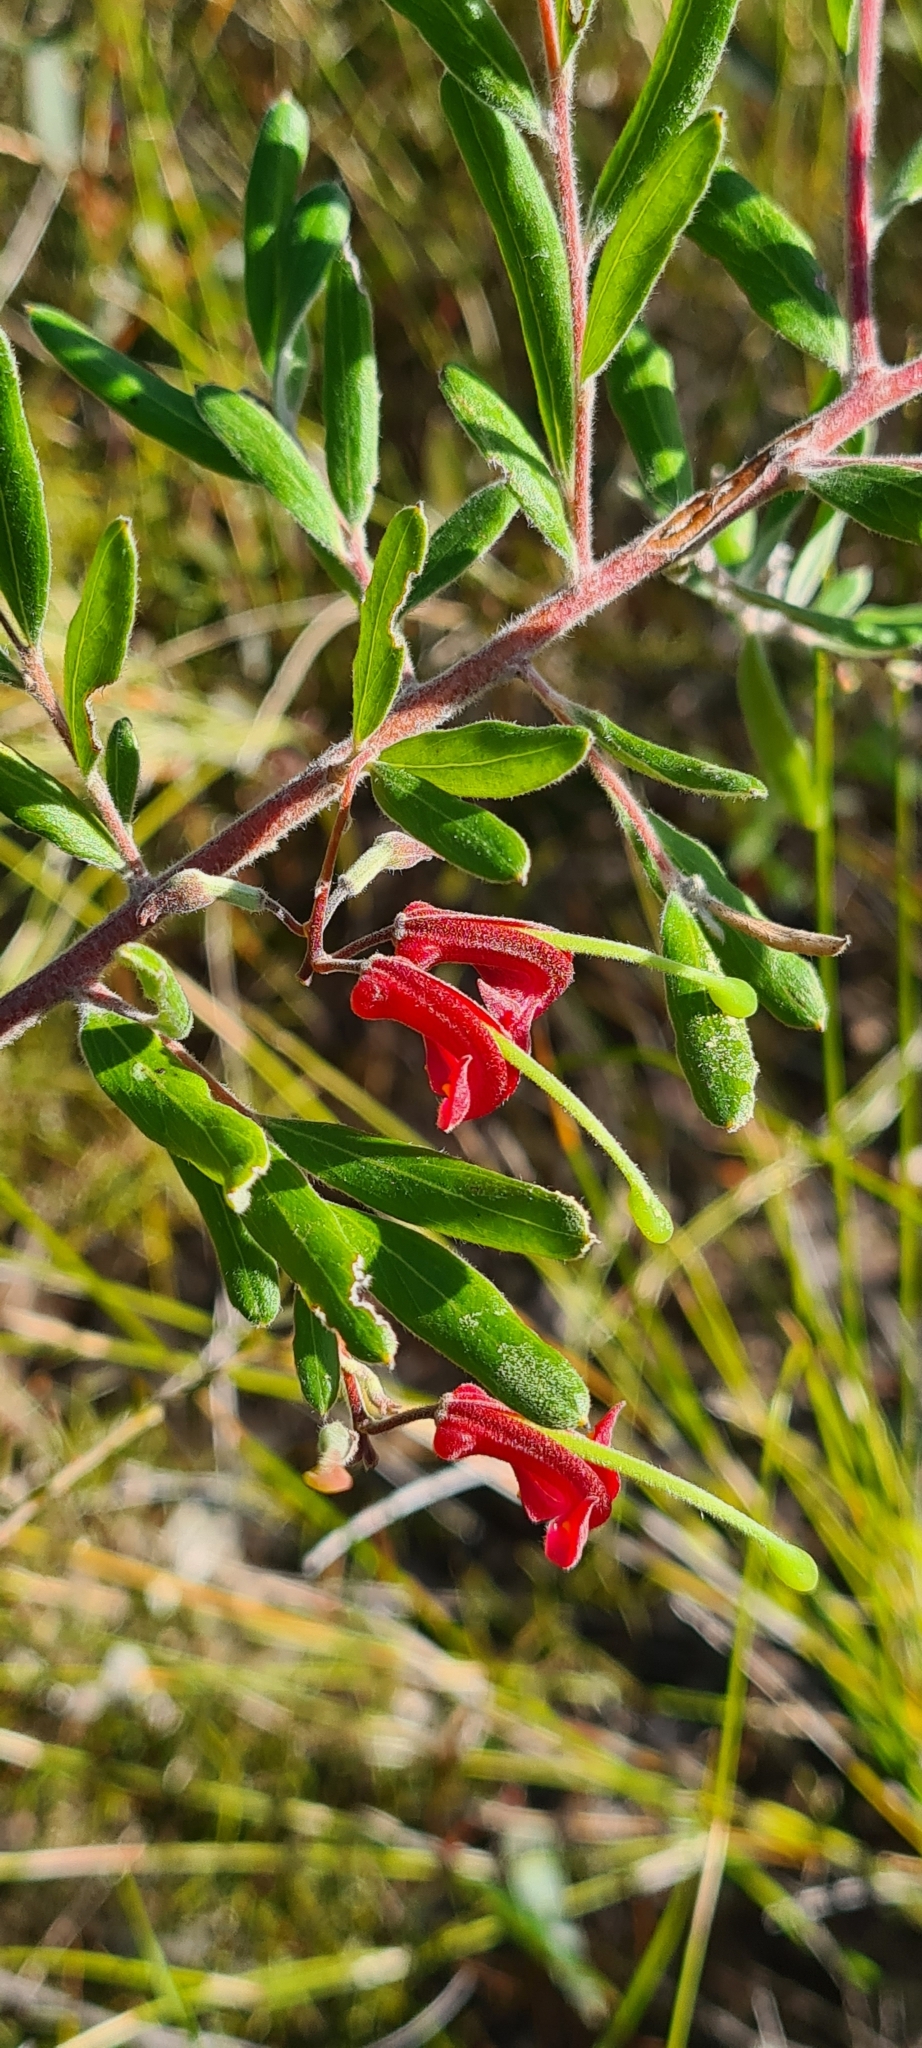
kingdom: Plantae
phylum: Tracheophyta
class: Magnoliopsida
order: Proteales
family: Proteaceae
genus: Grevillea
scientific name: Grevillea arenaria
